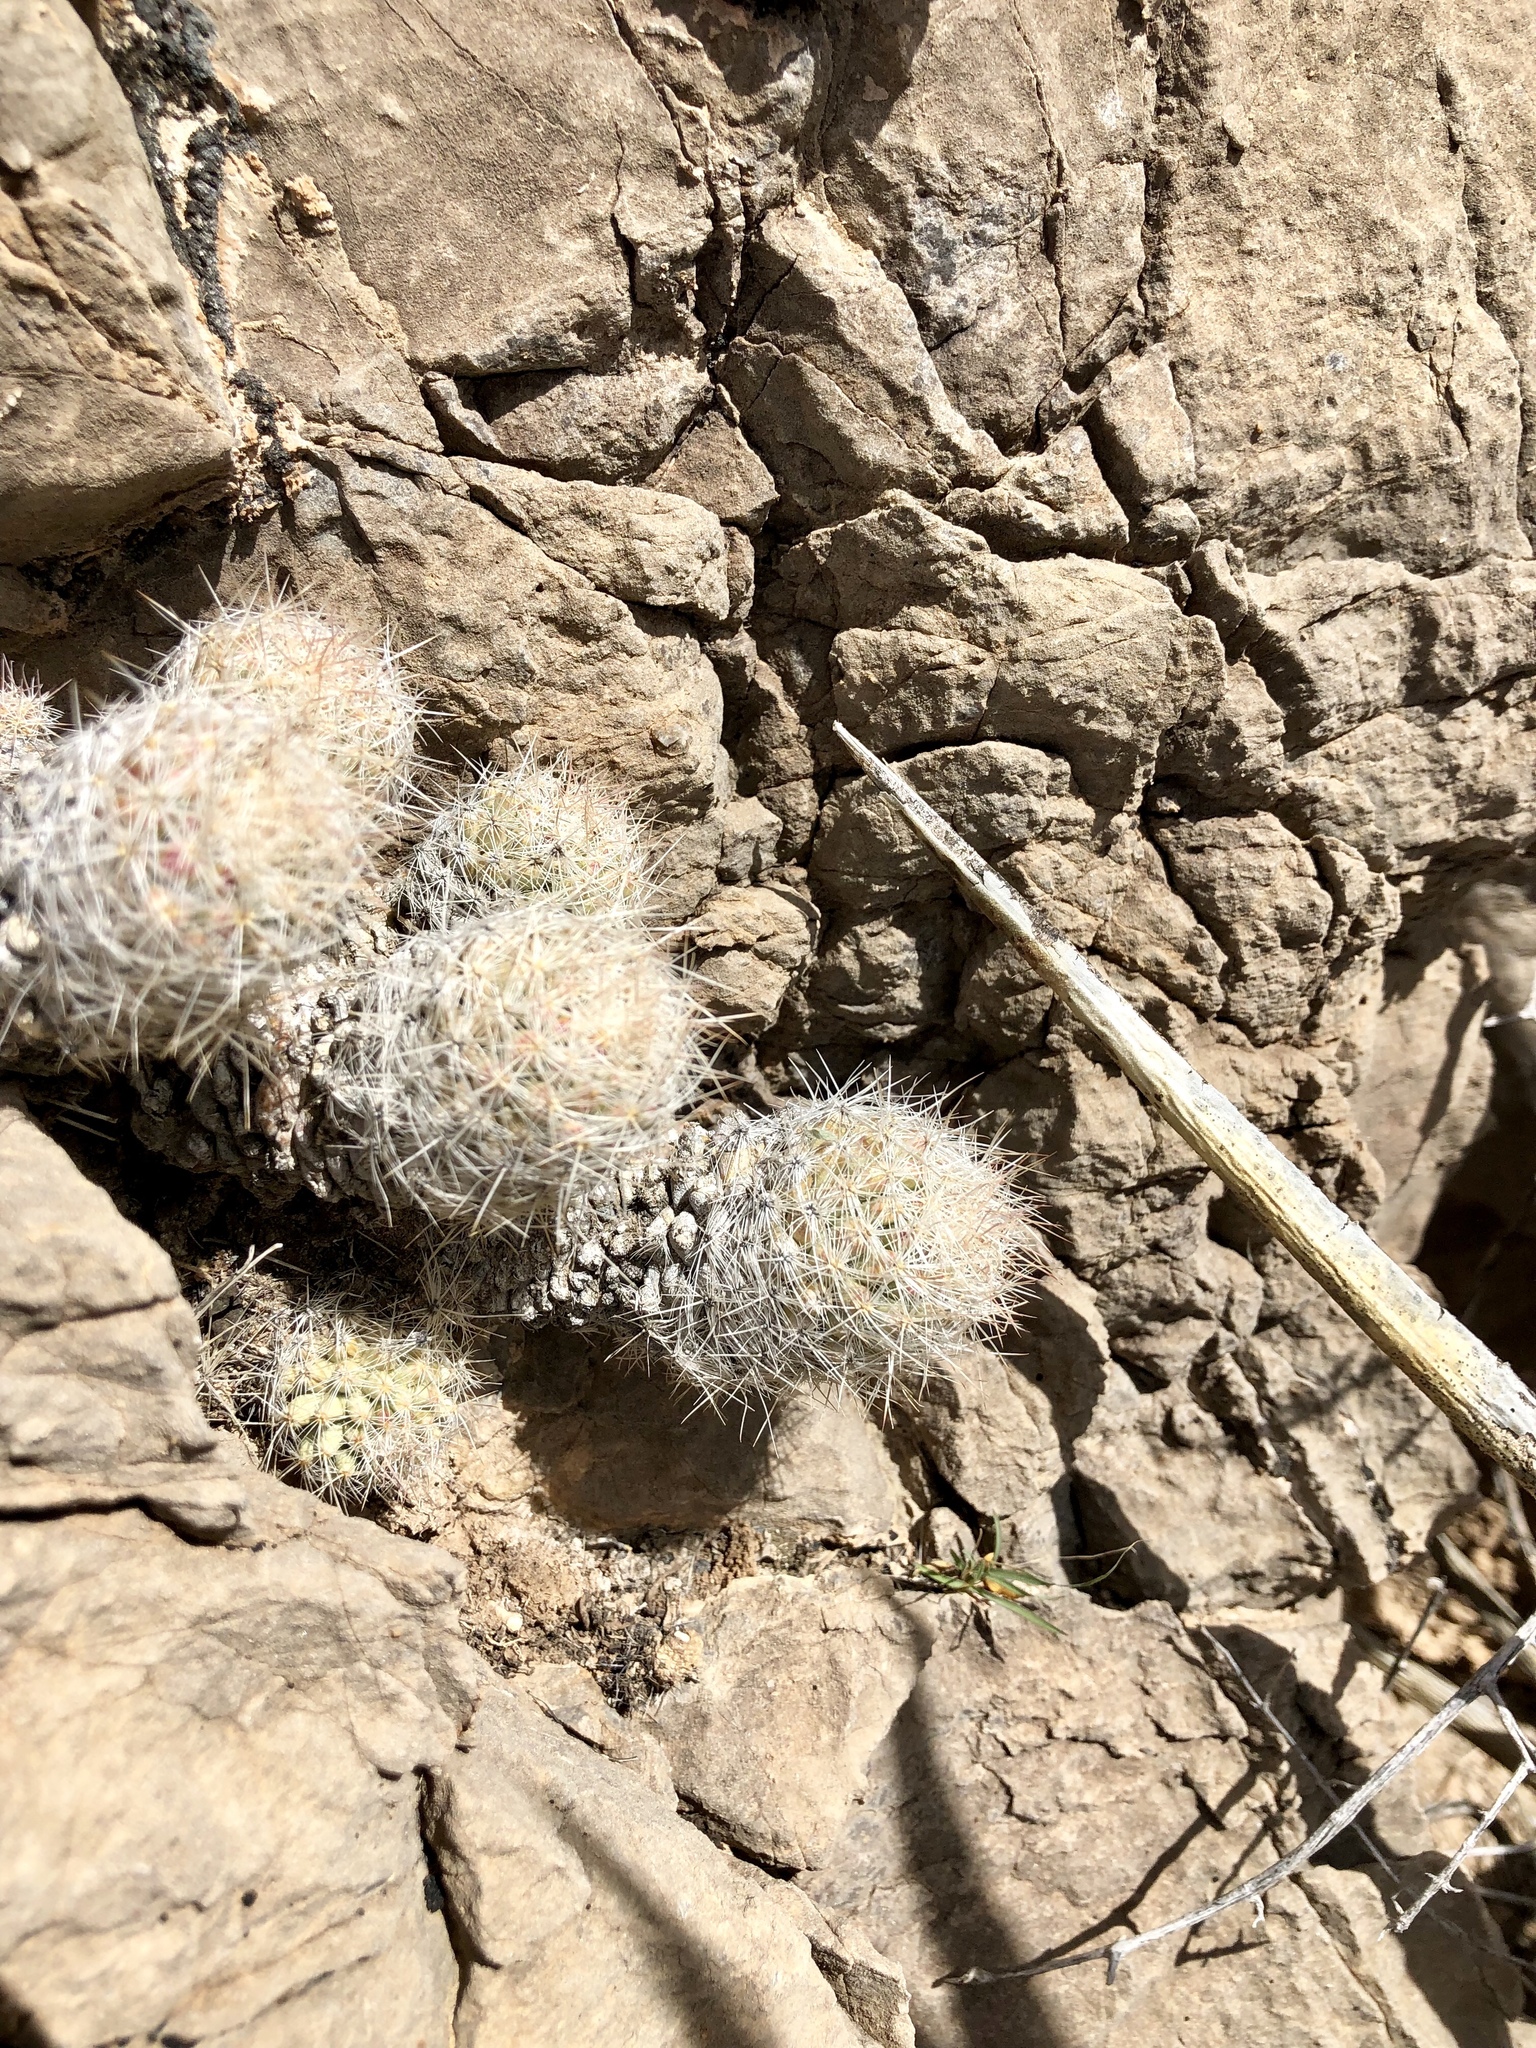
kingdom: Plantae
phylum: Tracheophyta
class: Magnoliopsida
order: Caryophyllales
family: Cactaceae
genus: Pelecyphora
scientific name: Pelecyphora tuberculosa
